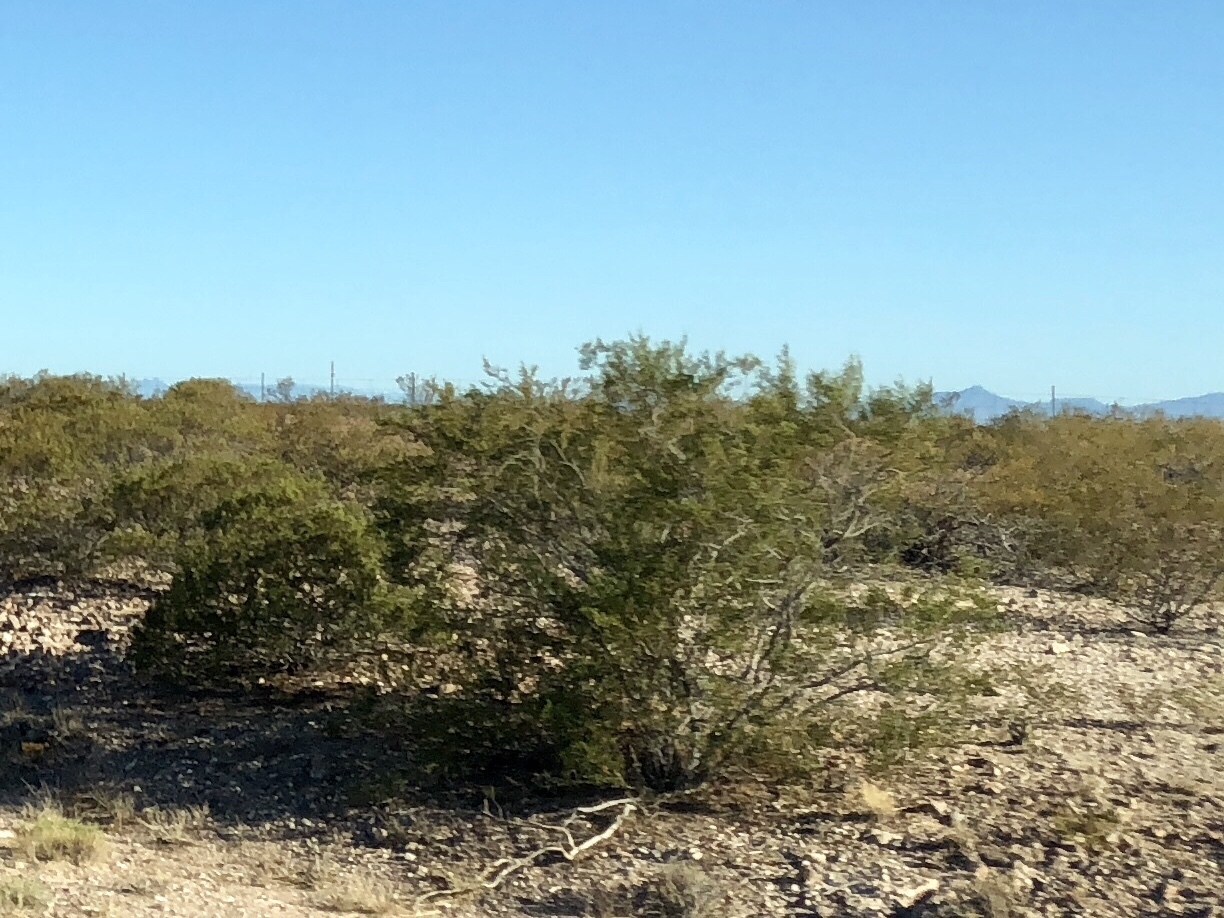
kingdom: Plantae
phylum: Tracheophyta
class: Magnoliopsida
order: Zygophyllales
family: Zygophyllaceae
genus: Larrea
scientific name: Larrea tridentata
